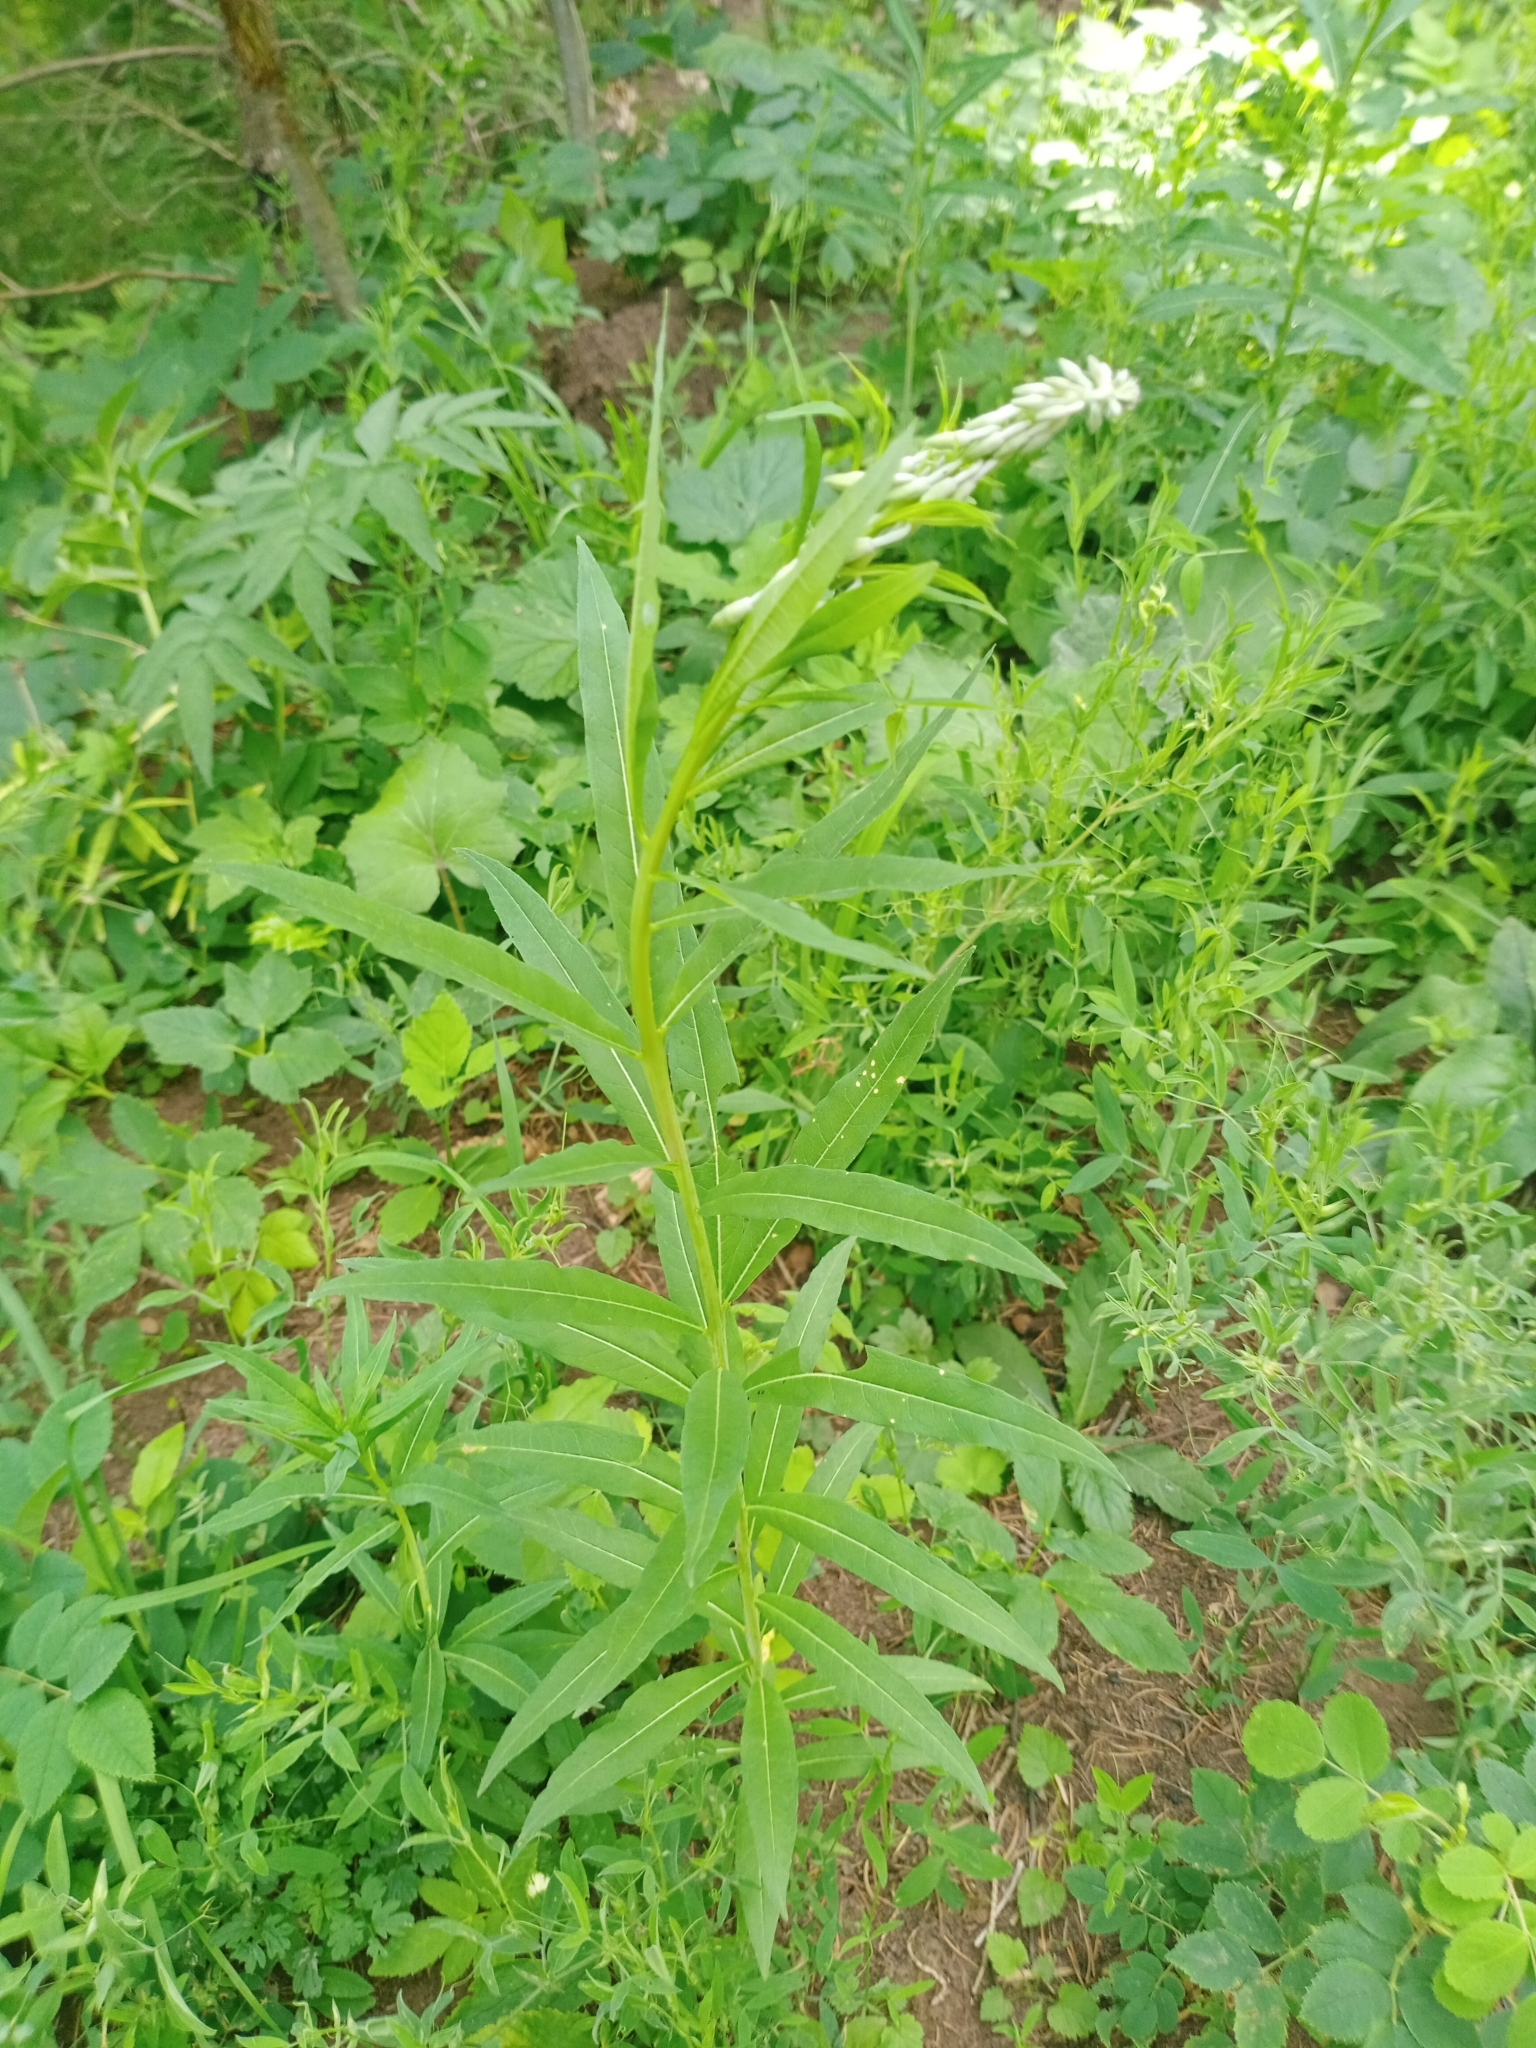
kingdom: Plantae
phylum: Tracheophyta
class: Magnoliopsida
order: Myrtales
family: Onagraceae
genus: Chamaenerion
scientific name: Chamaenerion angustifolium
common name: Fireweed
